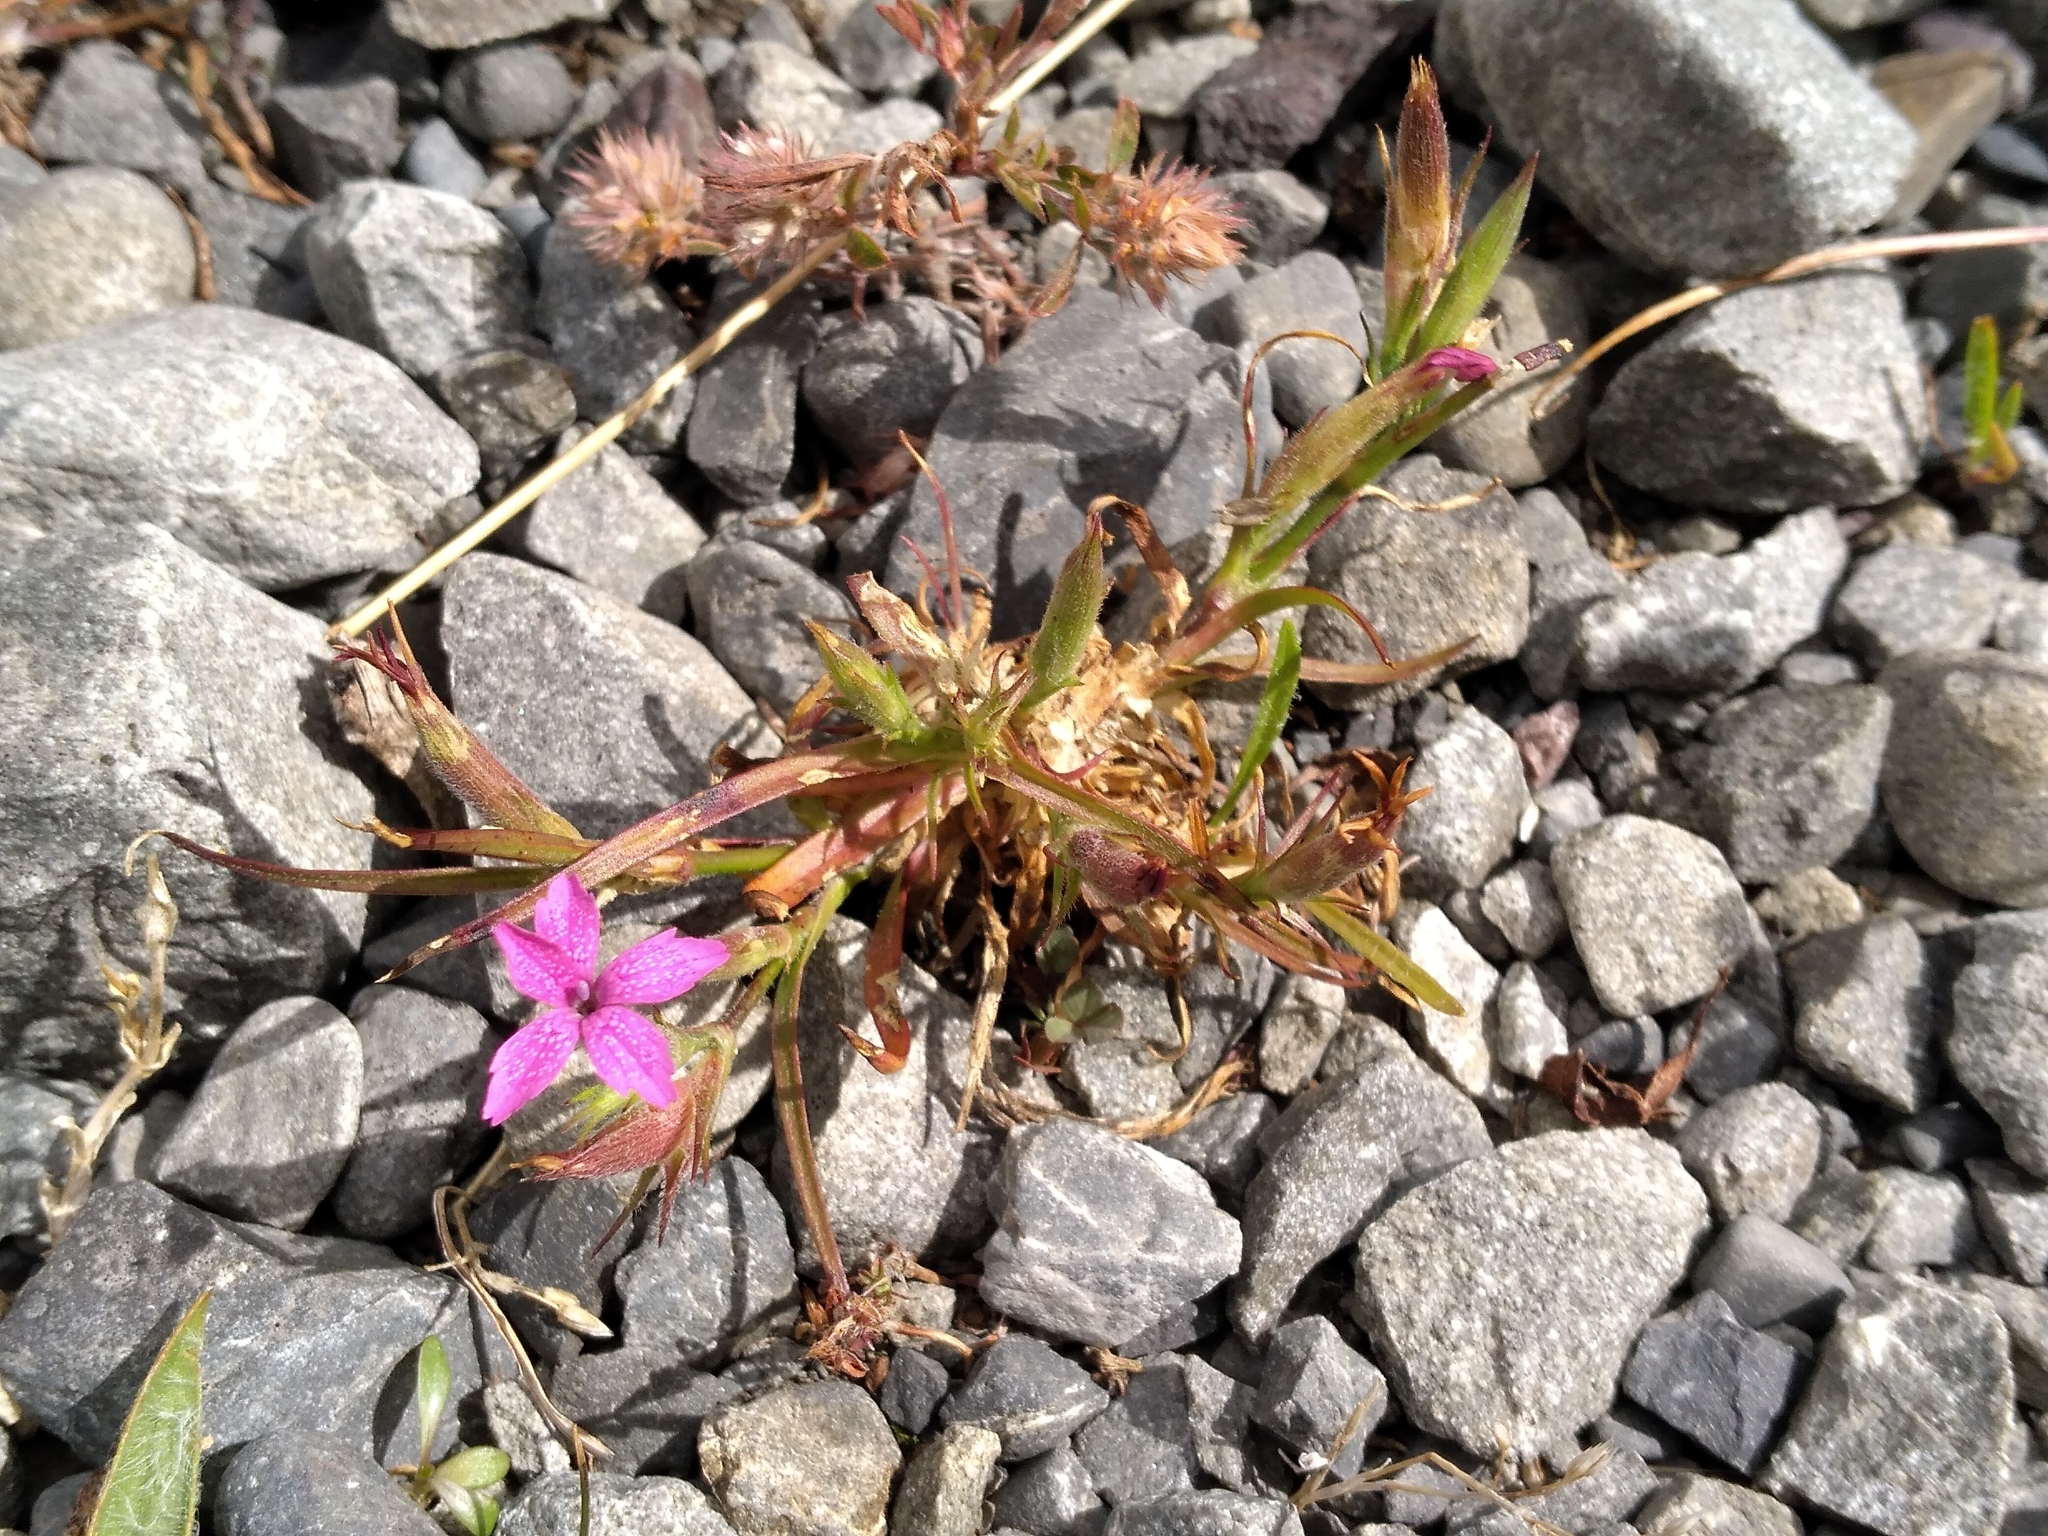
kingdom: Plantae
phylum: Tracheophyta
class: Magnoliopsida
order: Caryophyllales
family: Caryophyllaceae
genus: Dianthus
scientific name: Dianthus armeria
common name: Deptford pink
